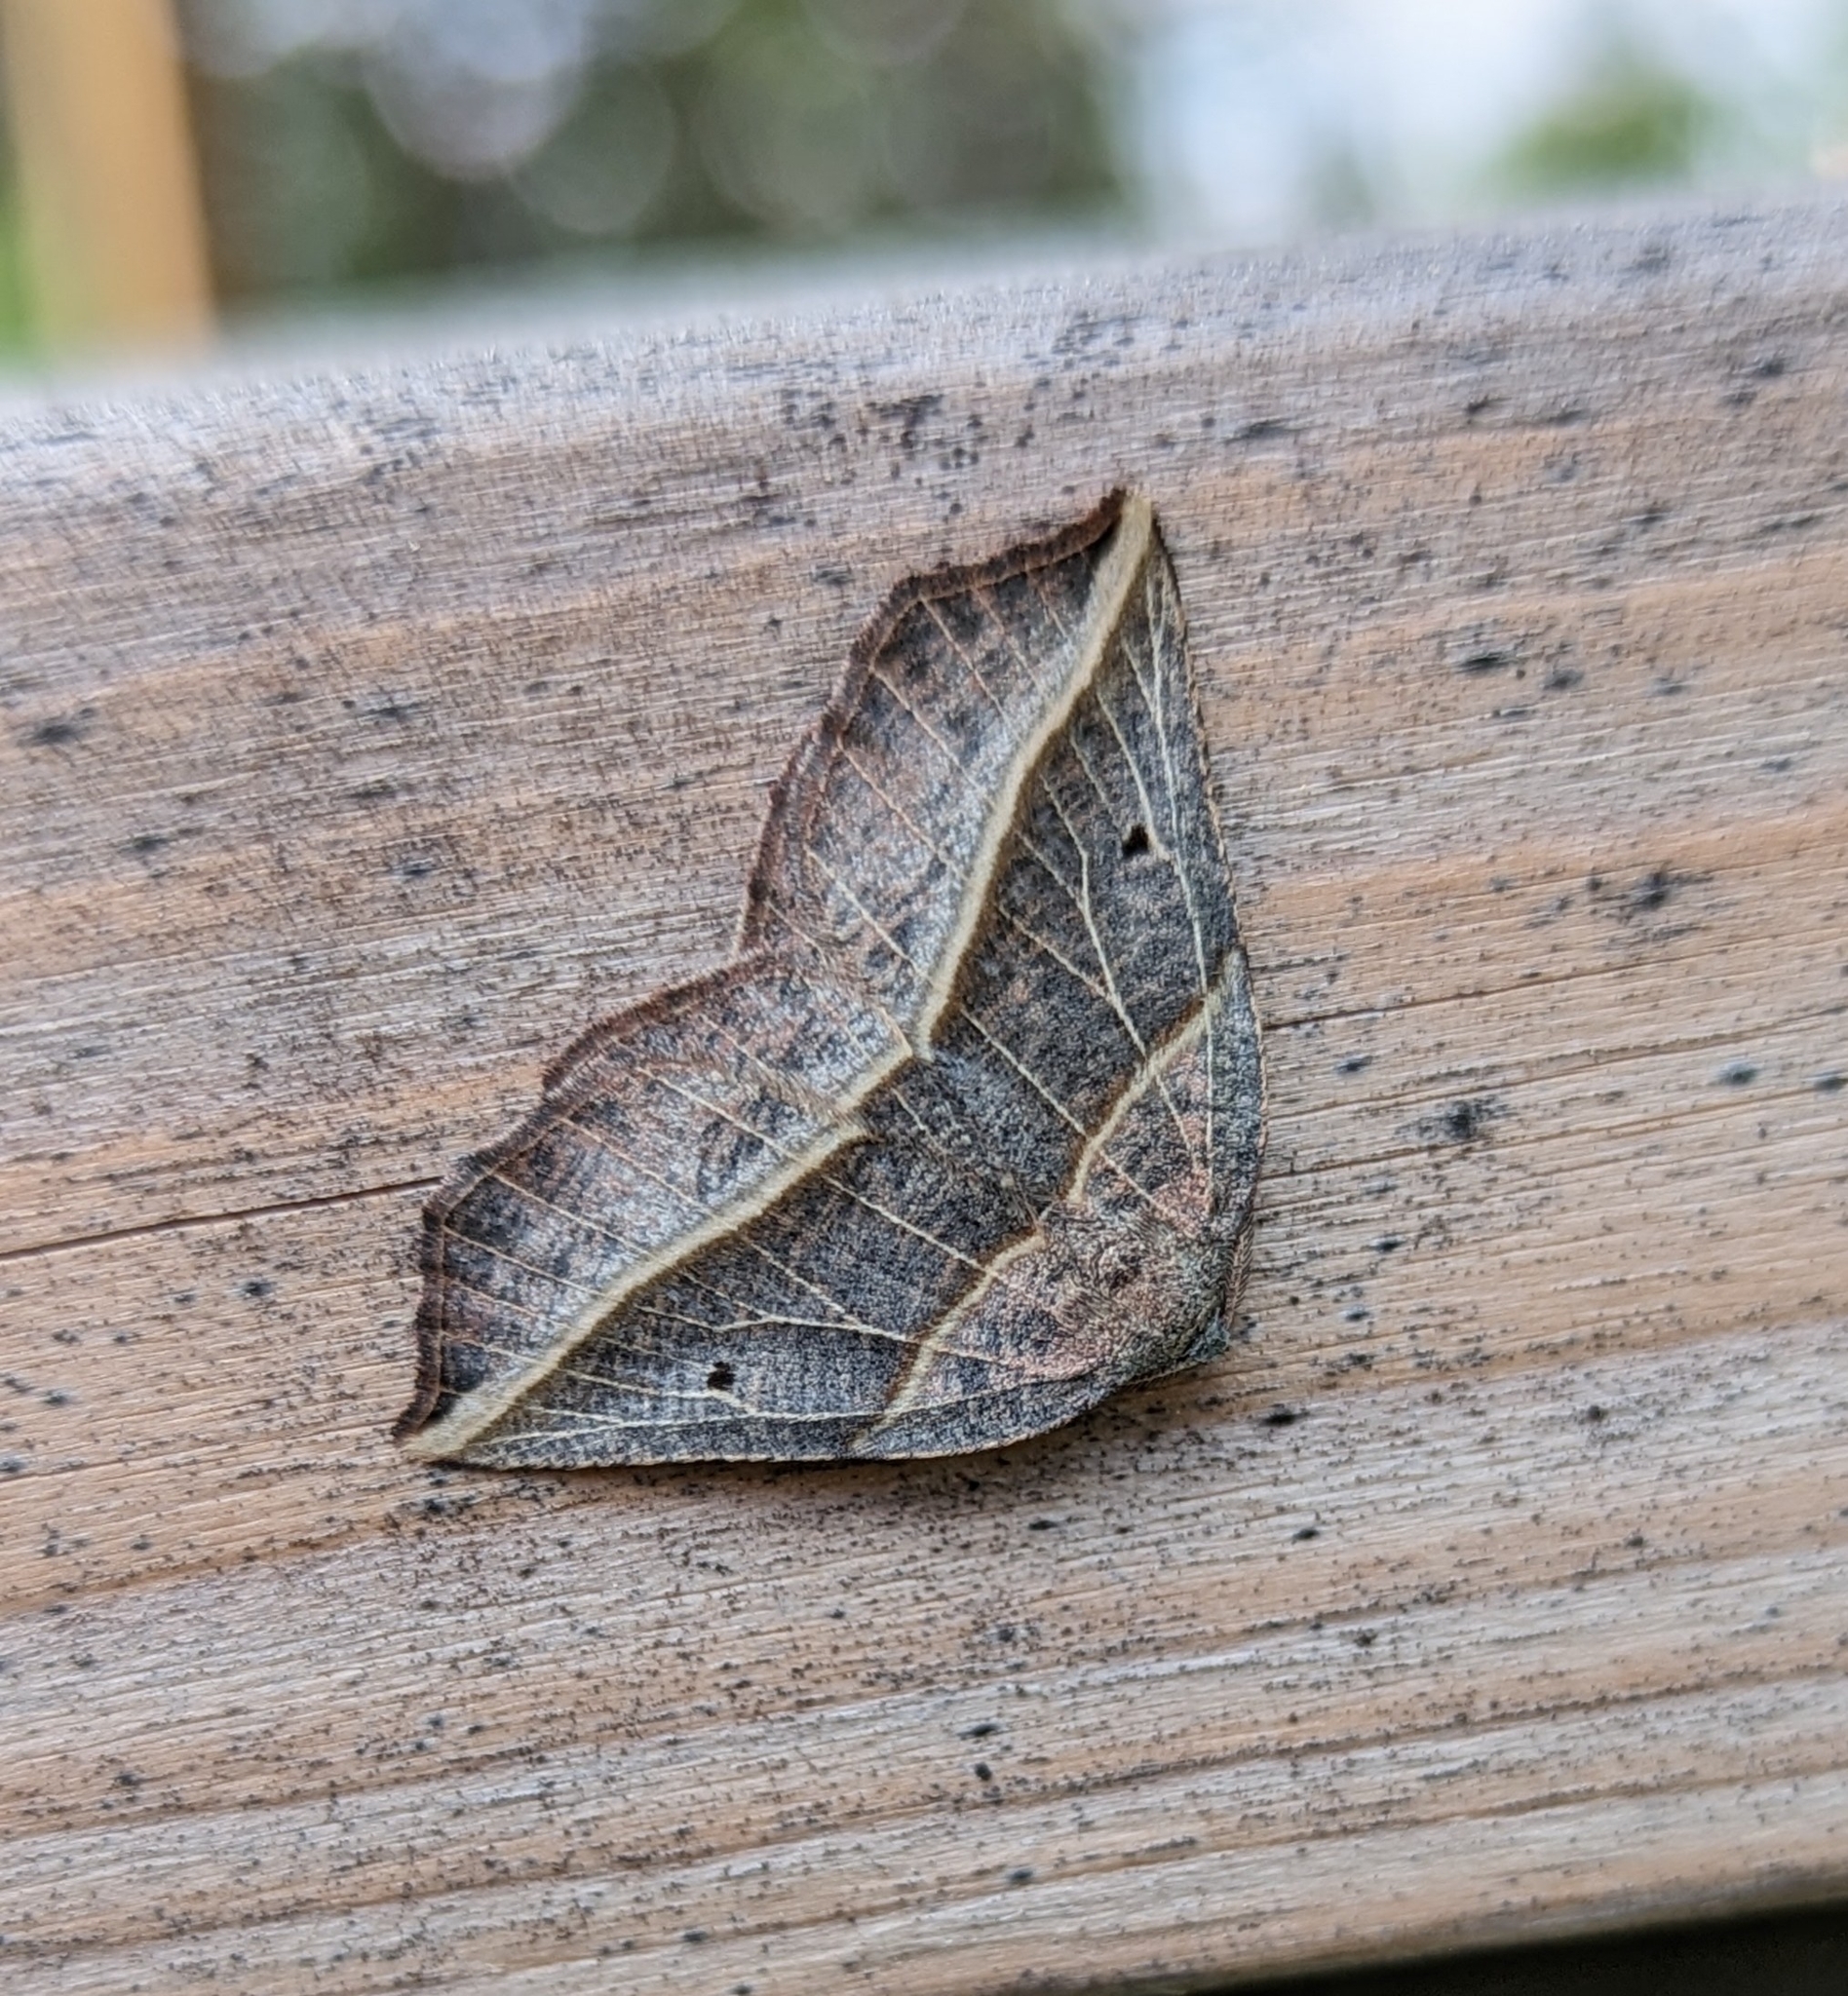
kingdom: Animalia
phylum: Arthropoda
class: Insecta
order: Lepidoptera
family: Geometridae
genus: Metanema
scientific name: Metanema determinata
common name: Dark metanema
